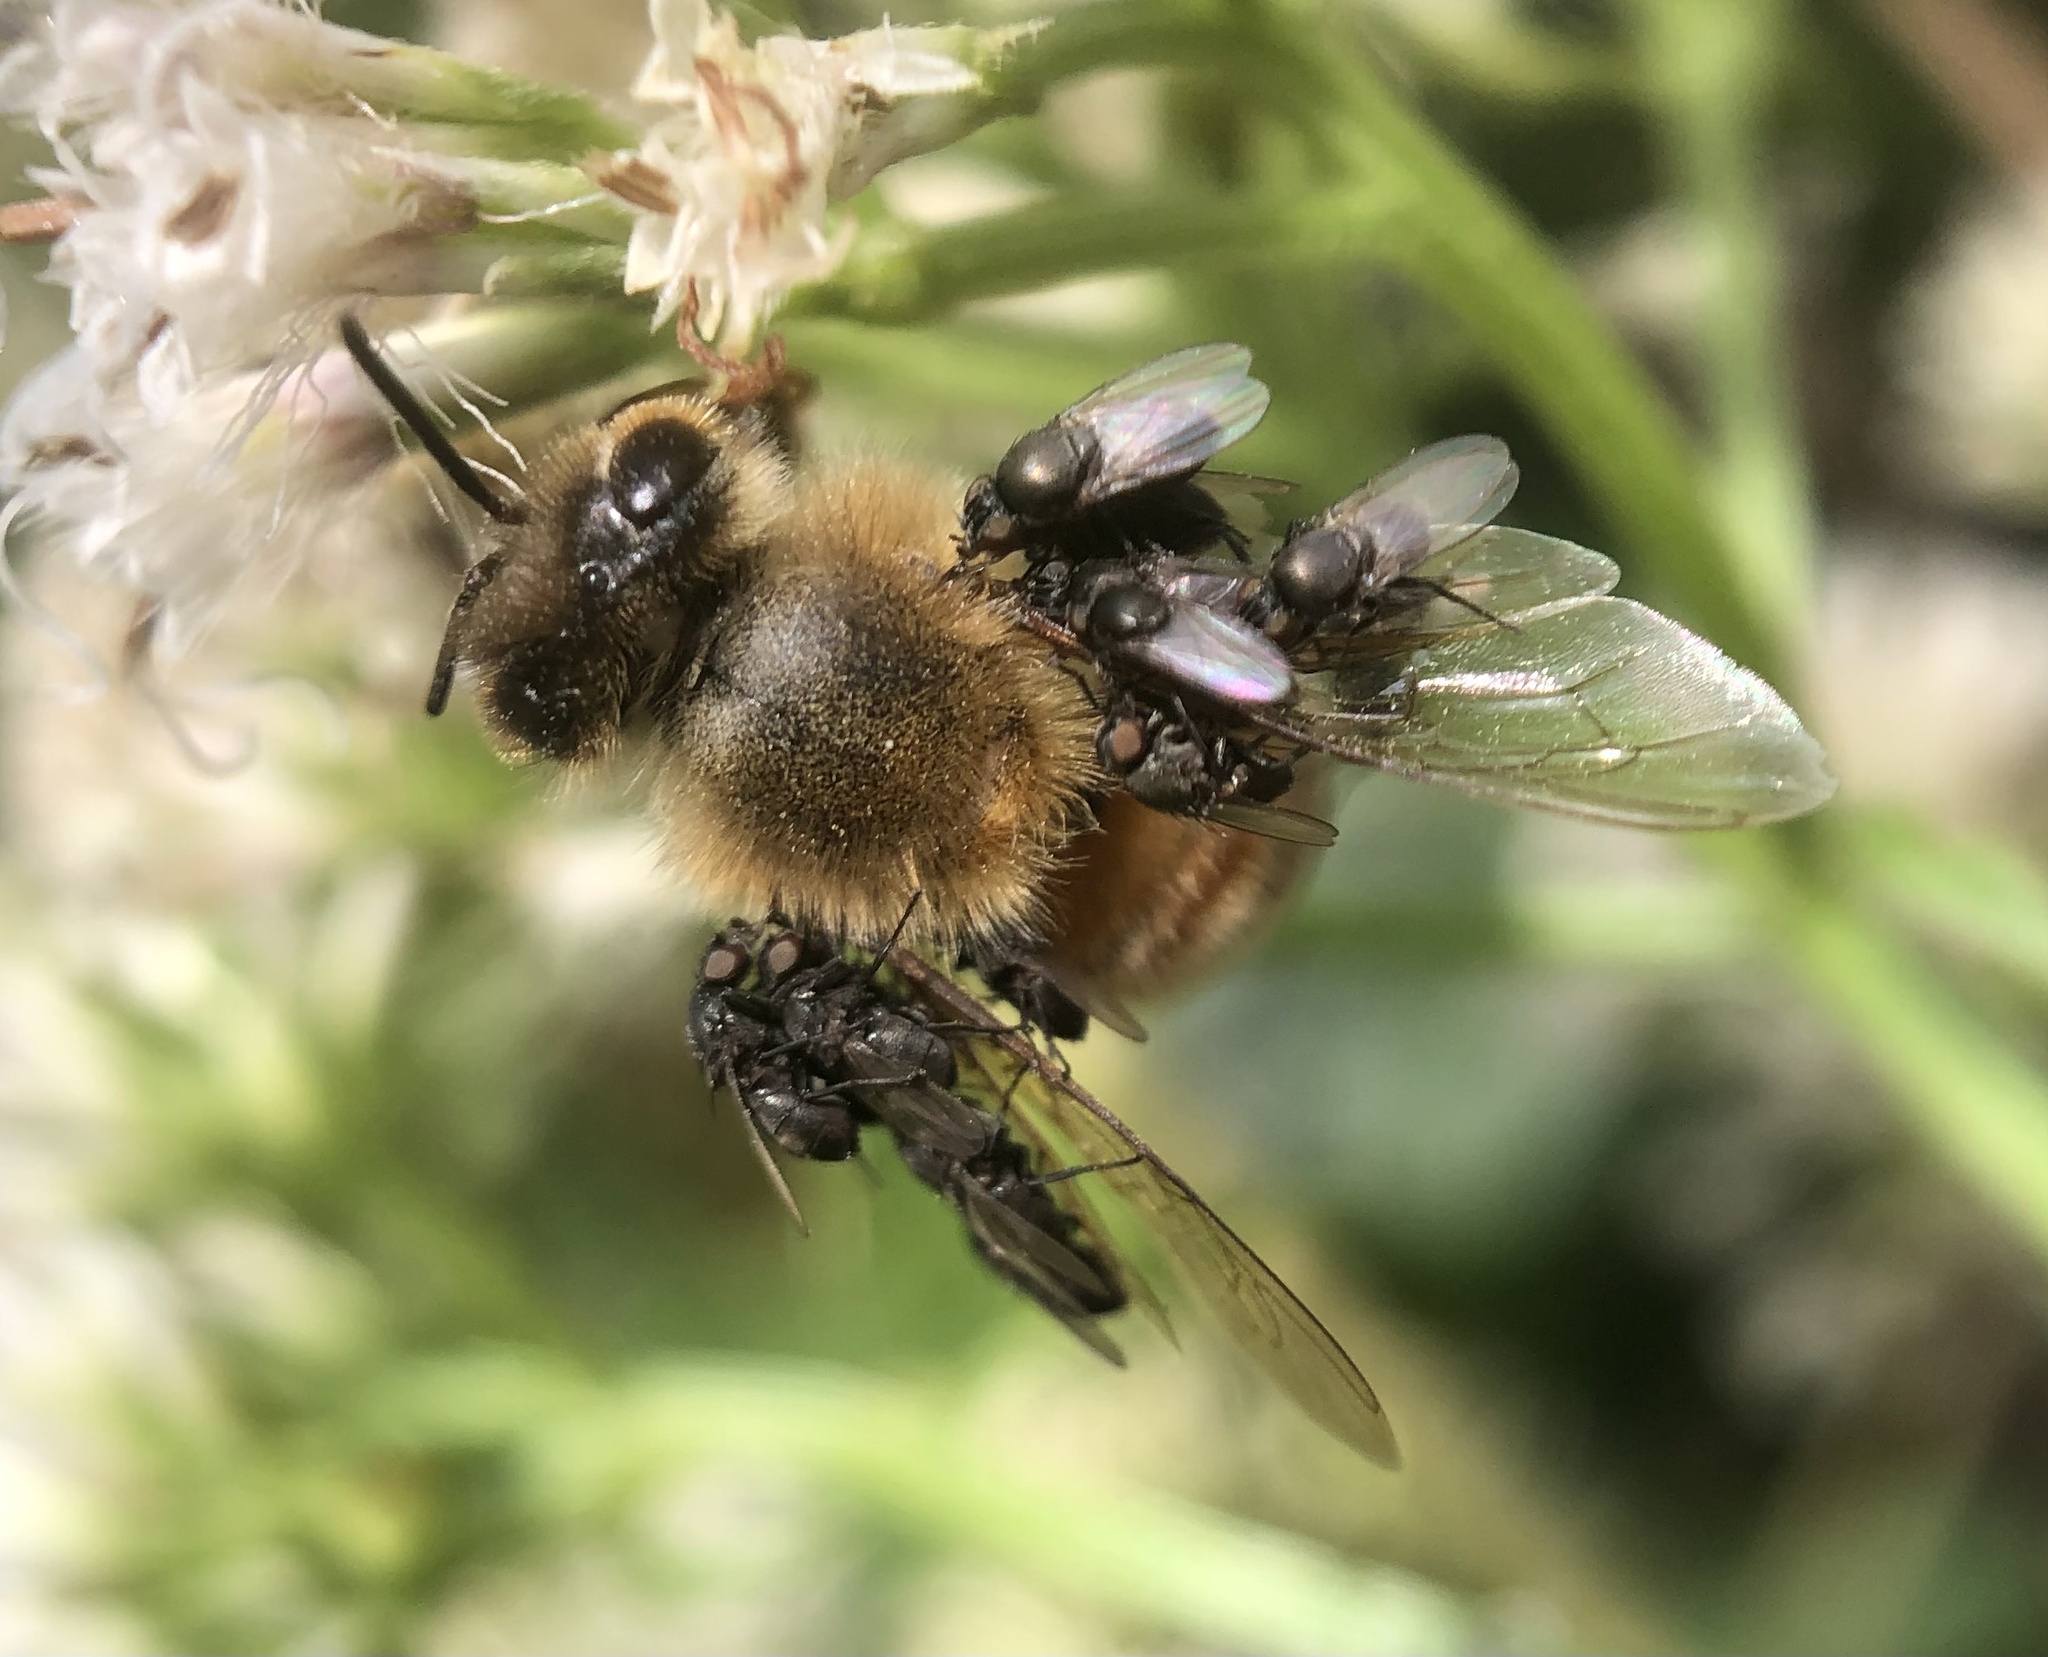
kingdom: Animalia
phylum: Arthropoda
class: Insecta
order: Hymenoptera
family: Apidae
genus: Apis
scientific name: Apis mellifera
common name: Honey bee
